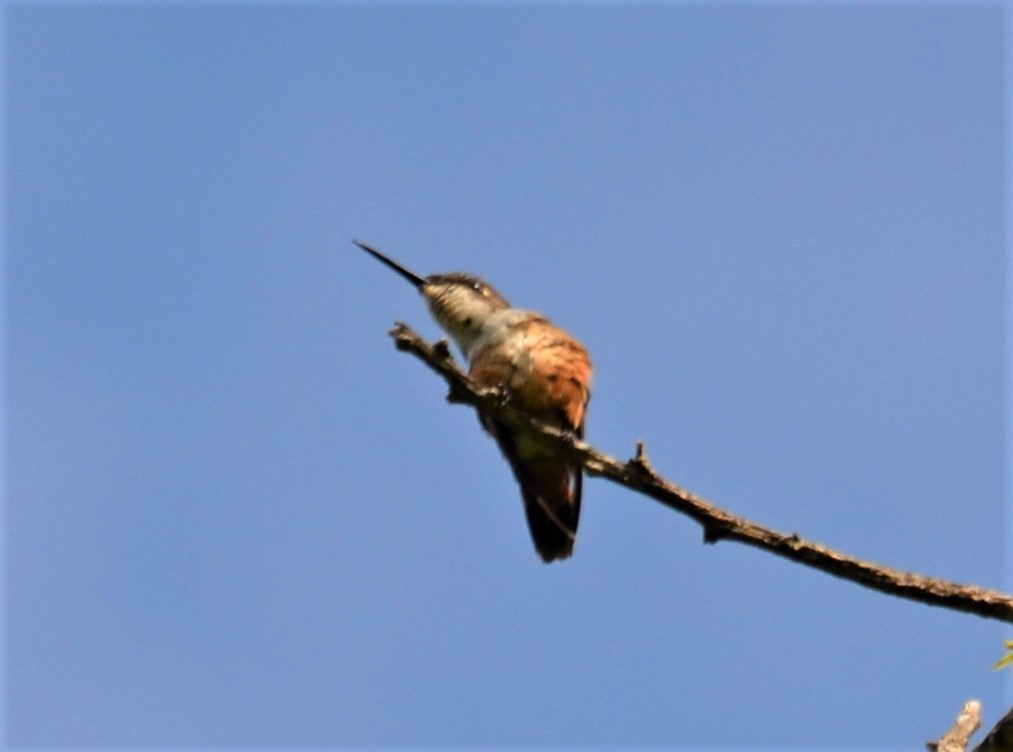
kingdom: Animalia
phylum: Chordata
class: Aves
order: Apodiformes
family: Trochilidae
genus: Calliphlox
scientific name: Calliphlox bryantae
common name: Magenta-throated woodstar
